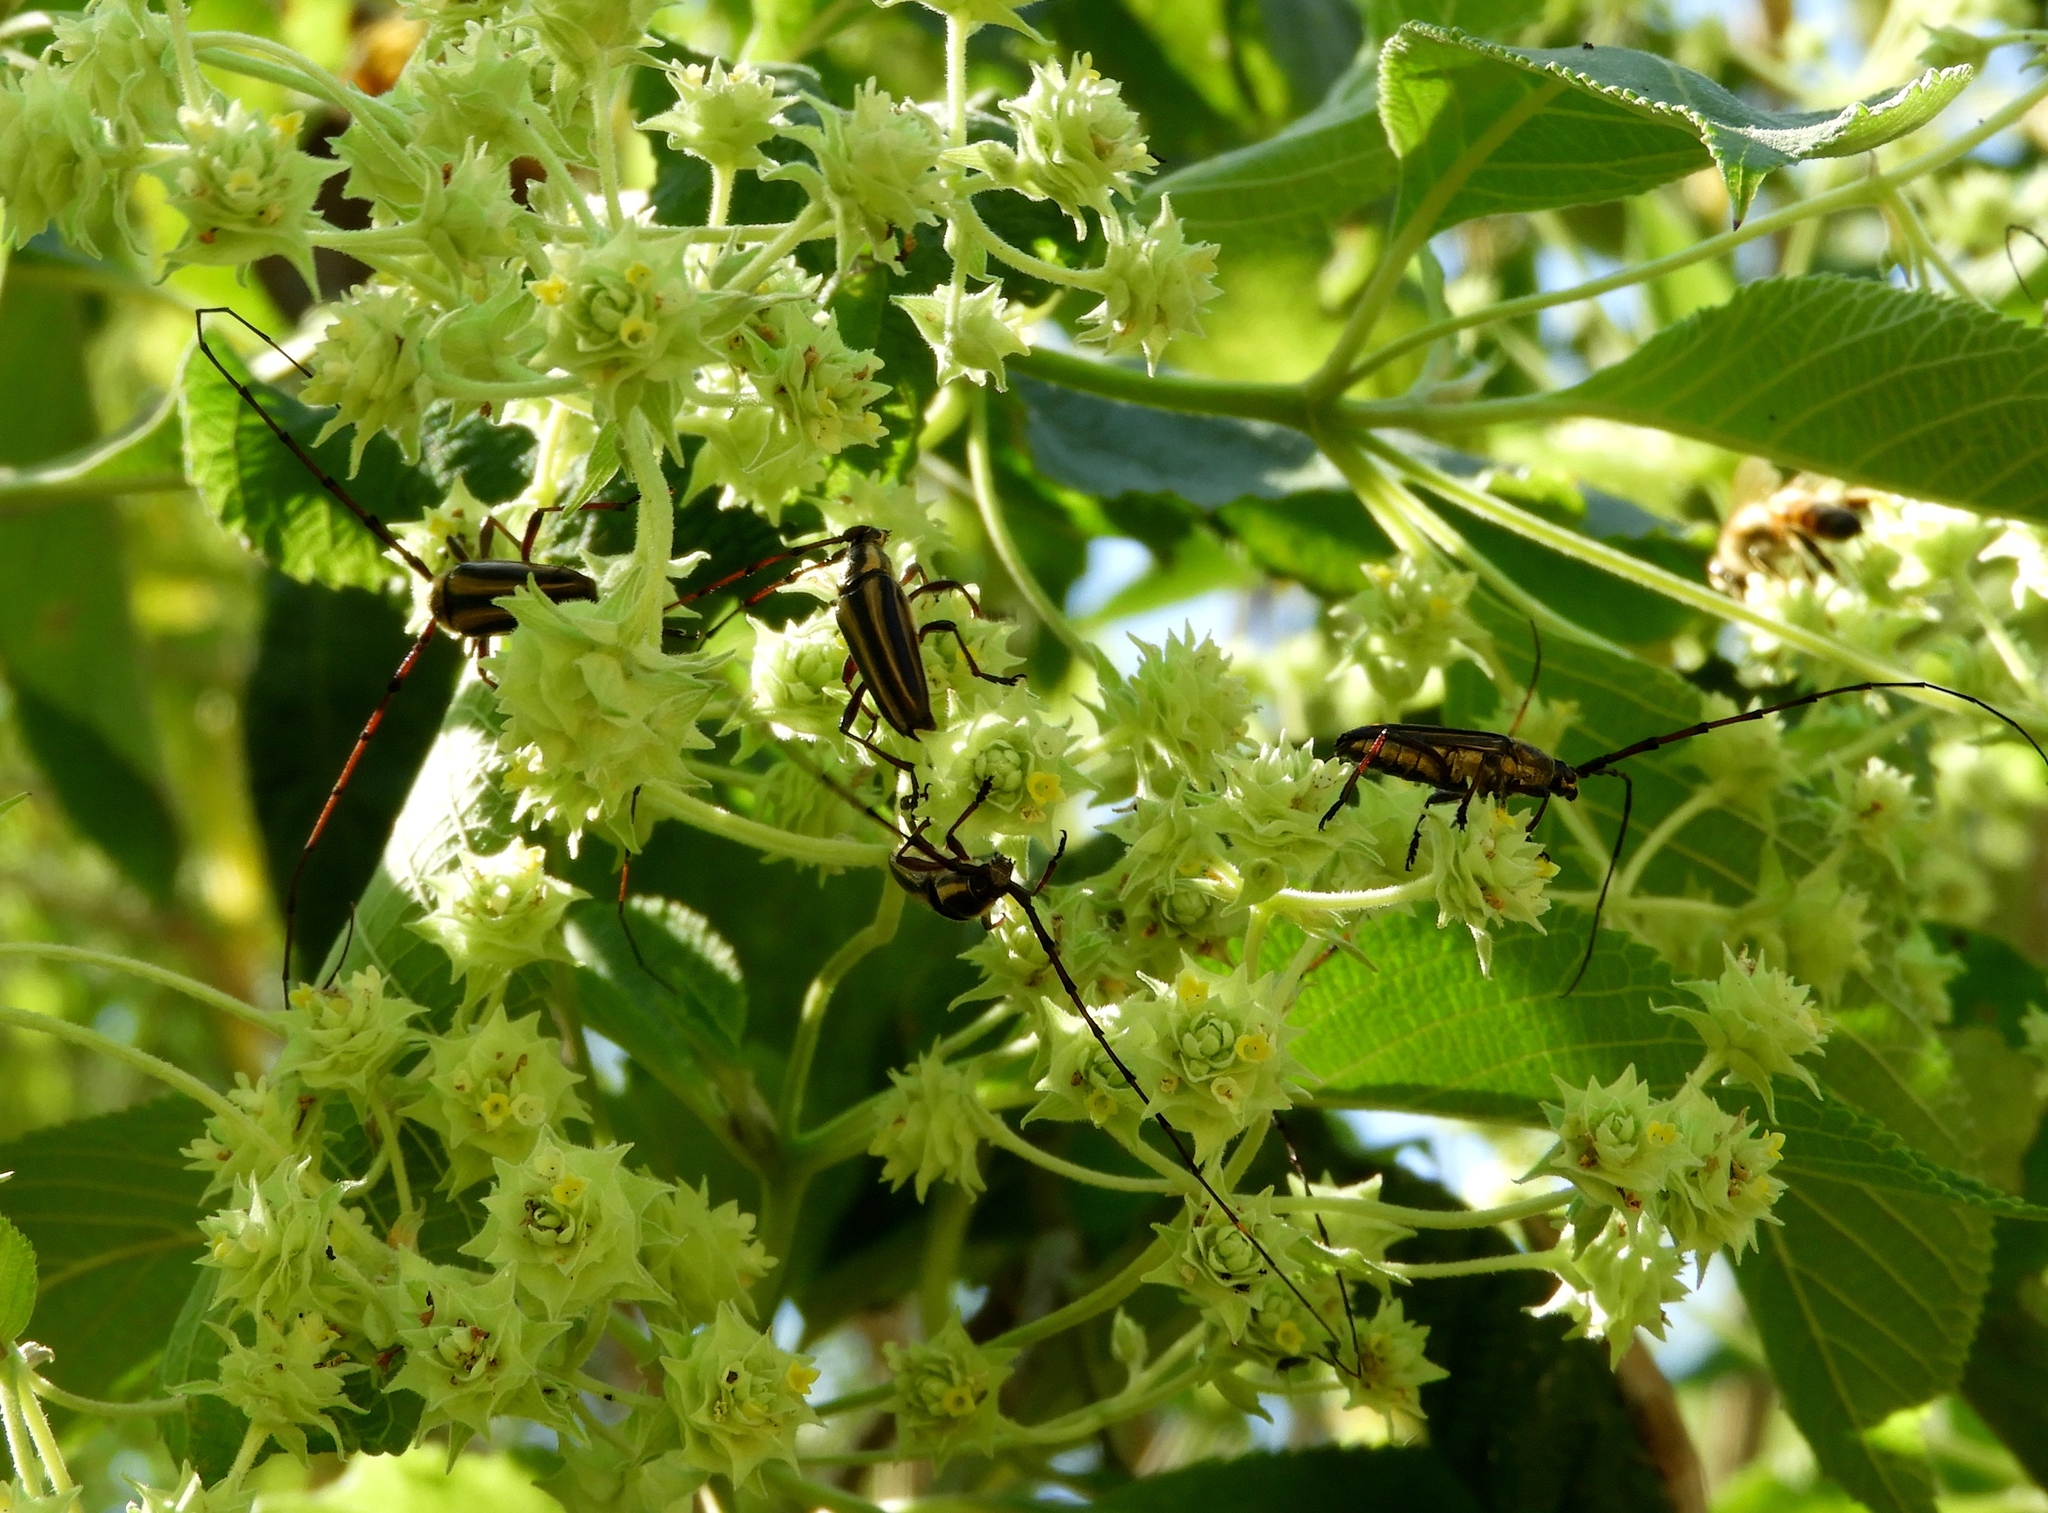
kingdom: Animalia
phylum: Arthropoda
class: Insecta
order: Coleoptera
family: Cerambycidae
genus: Sphaenothecus
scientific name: Sphaenothecus maccartyi
